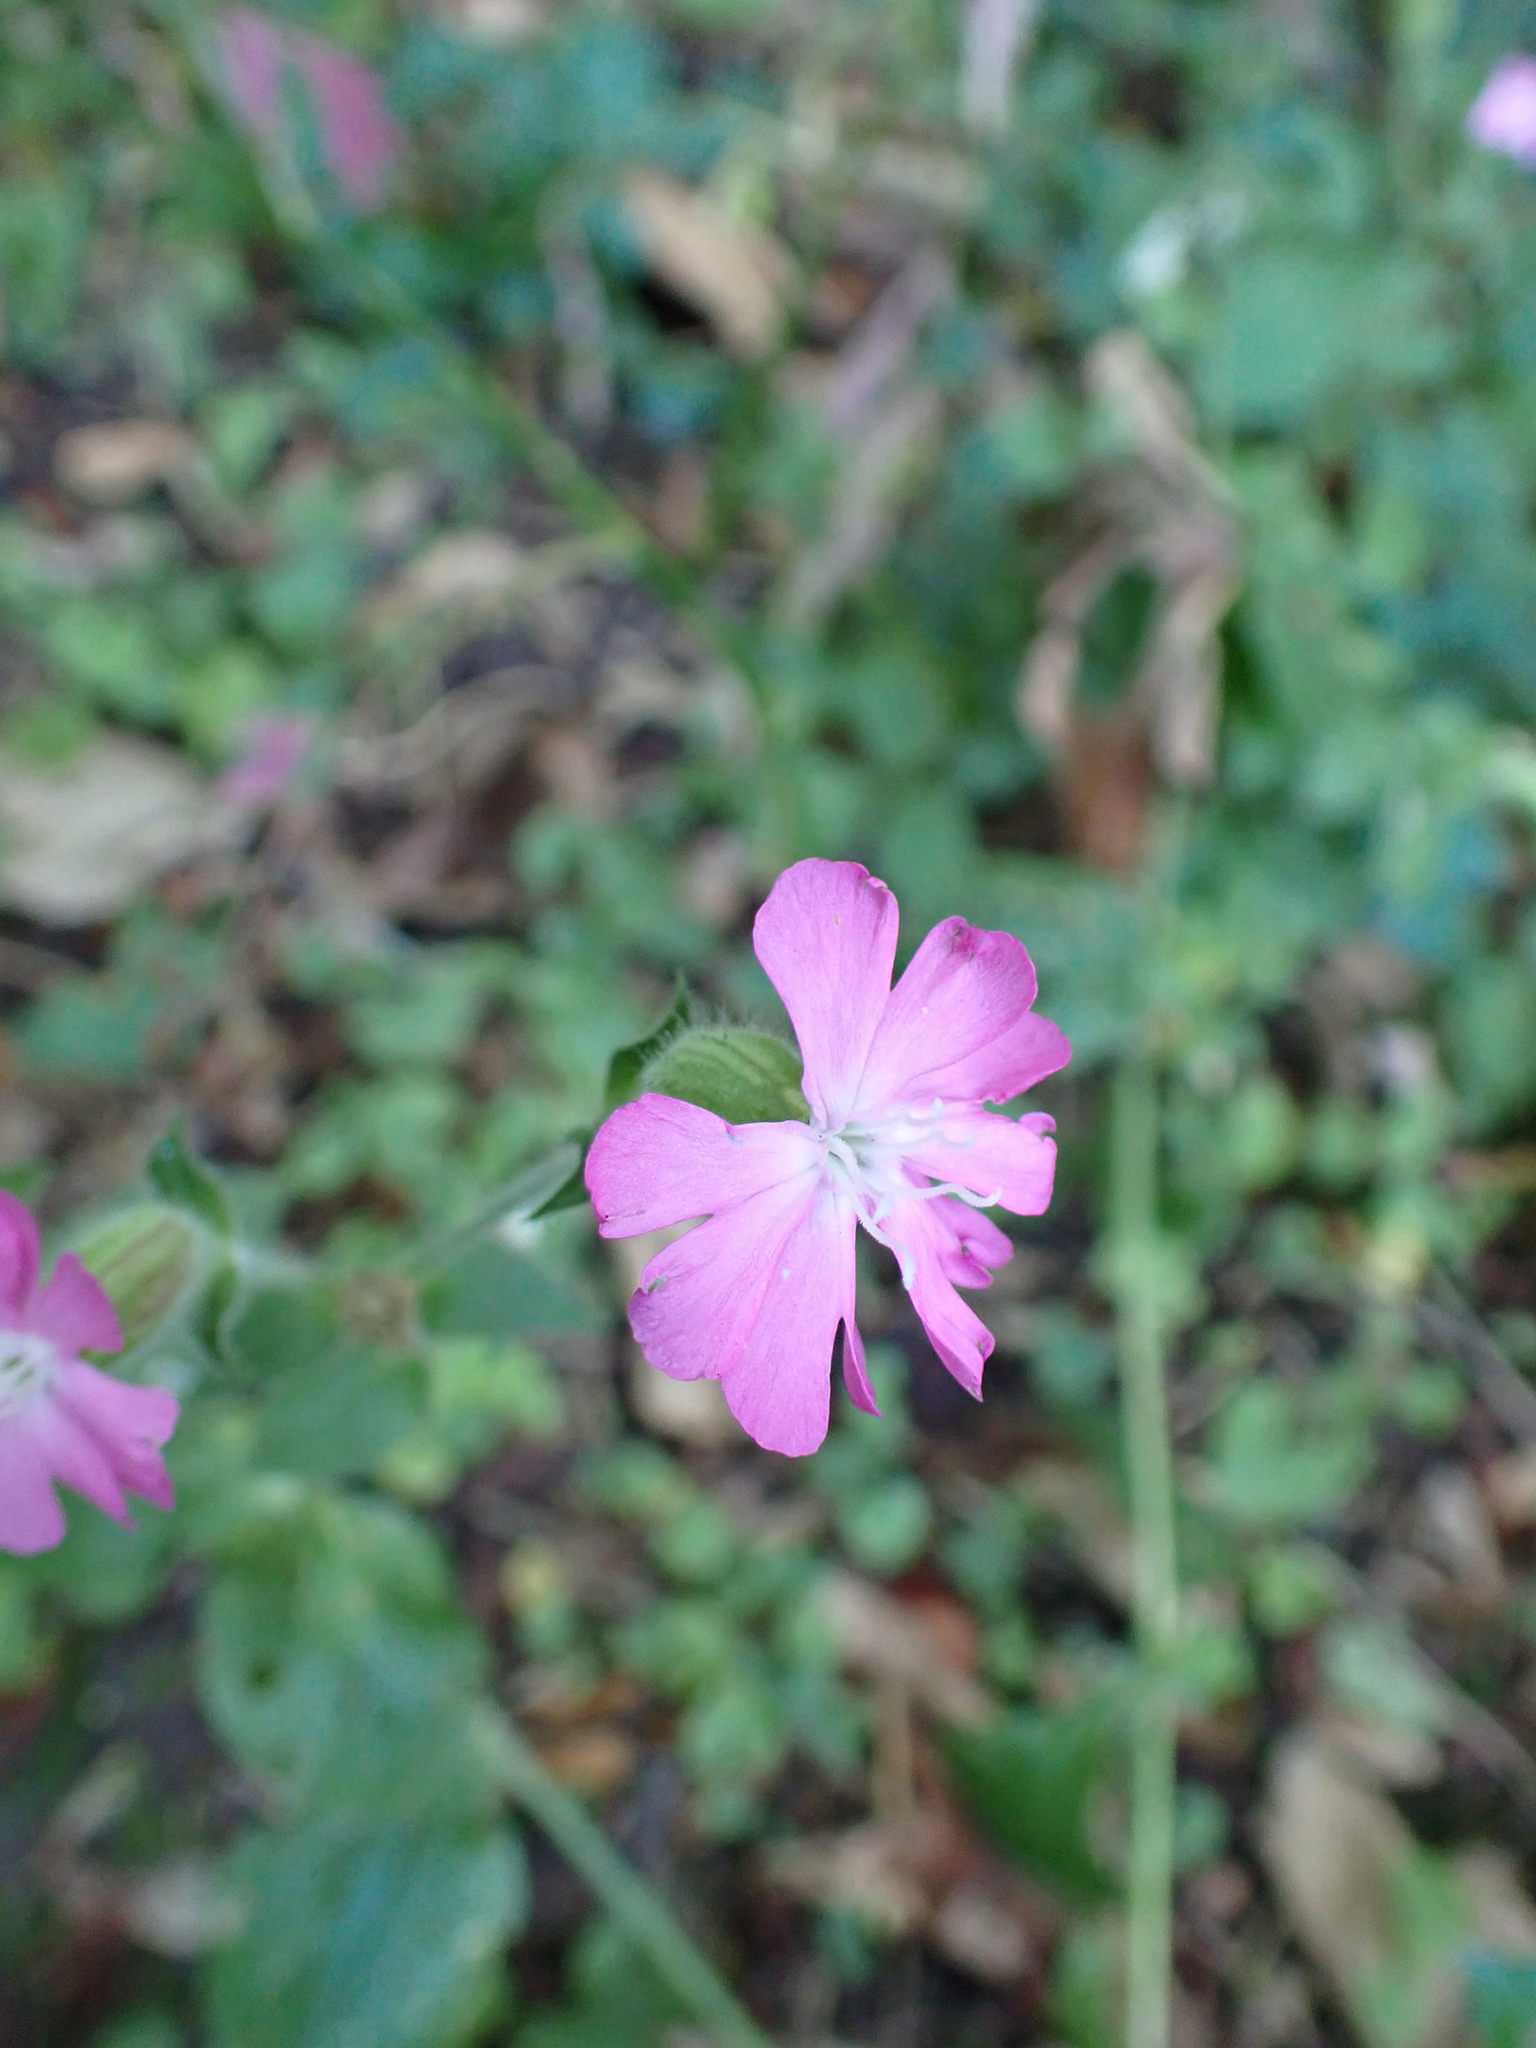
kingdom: Plantae
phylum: Tracheophyta
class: Magnoliopsida
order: Caryophyllales
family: Caryophyllaceae
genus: Silene
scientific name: Silene dioica
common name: Red campion
